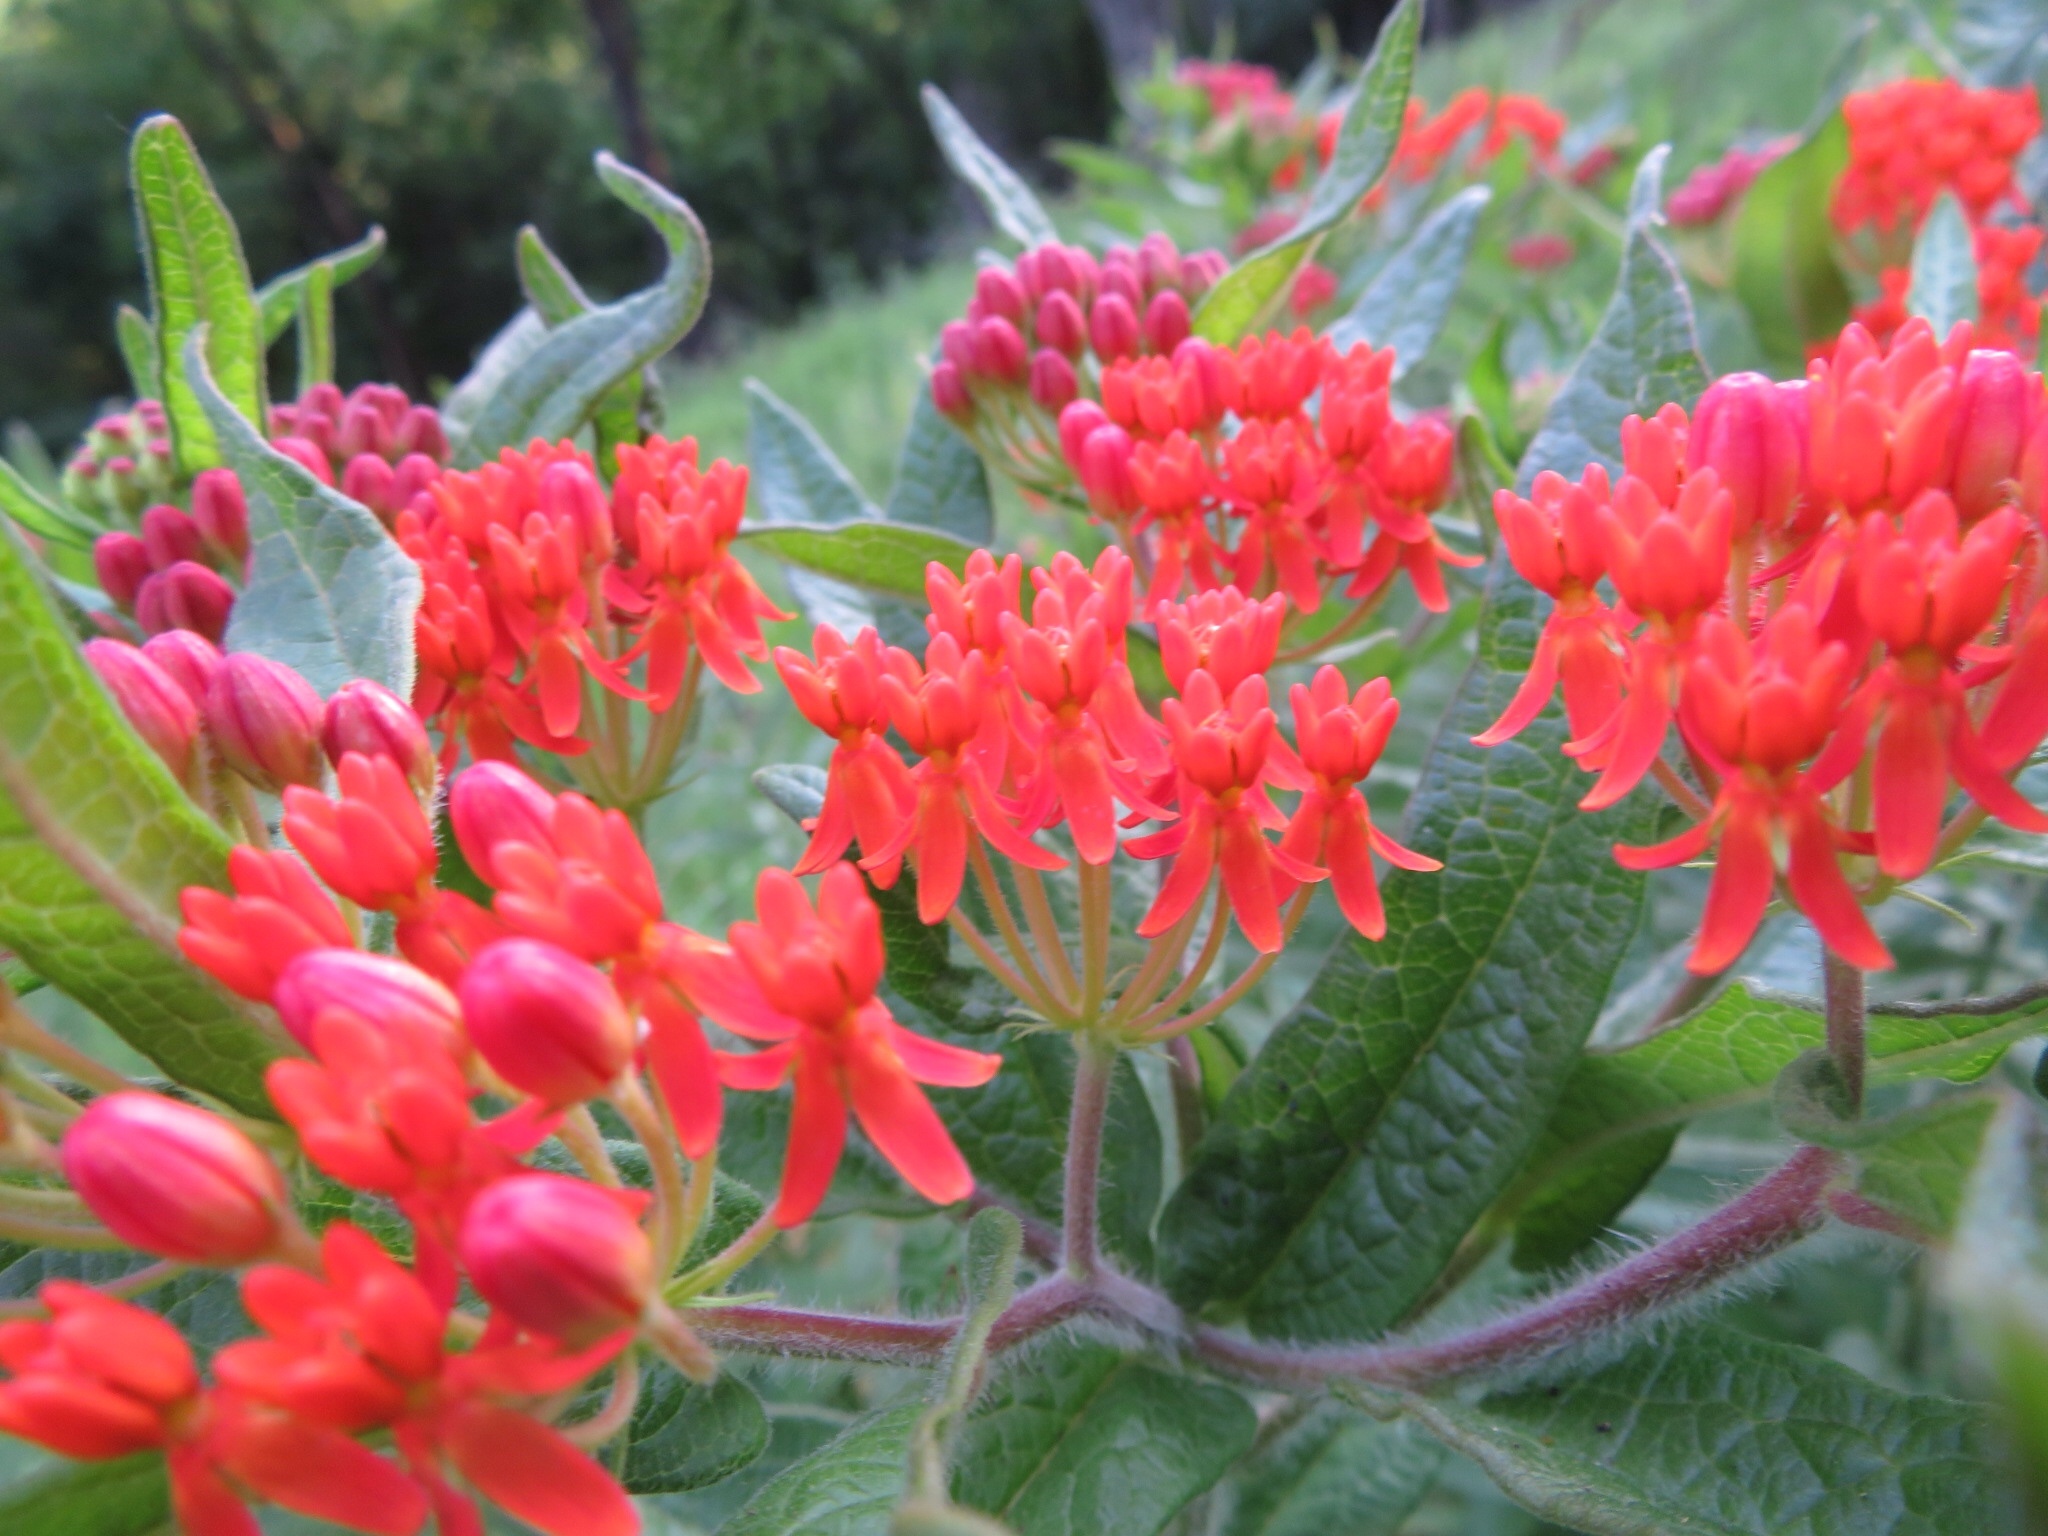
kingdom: Plantae
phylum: Tracheophyta
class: Magnoliopsida
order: Gentianales
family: Apocynaceae
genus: Asclepias
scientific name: Asclepias tuberosa
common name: Butterfly milkweed
